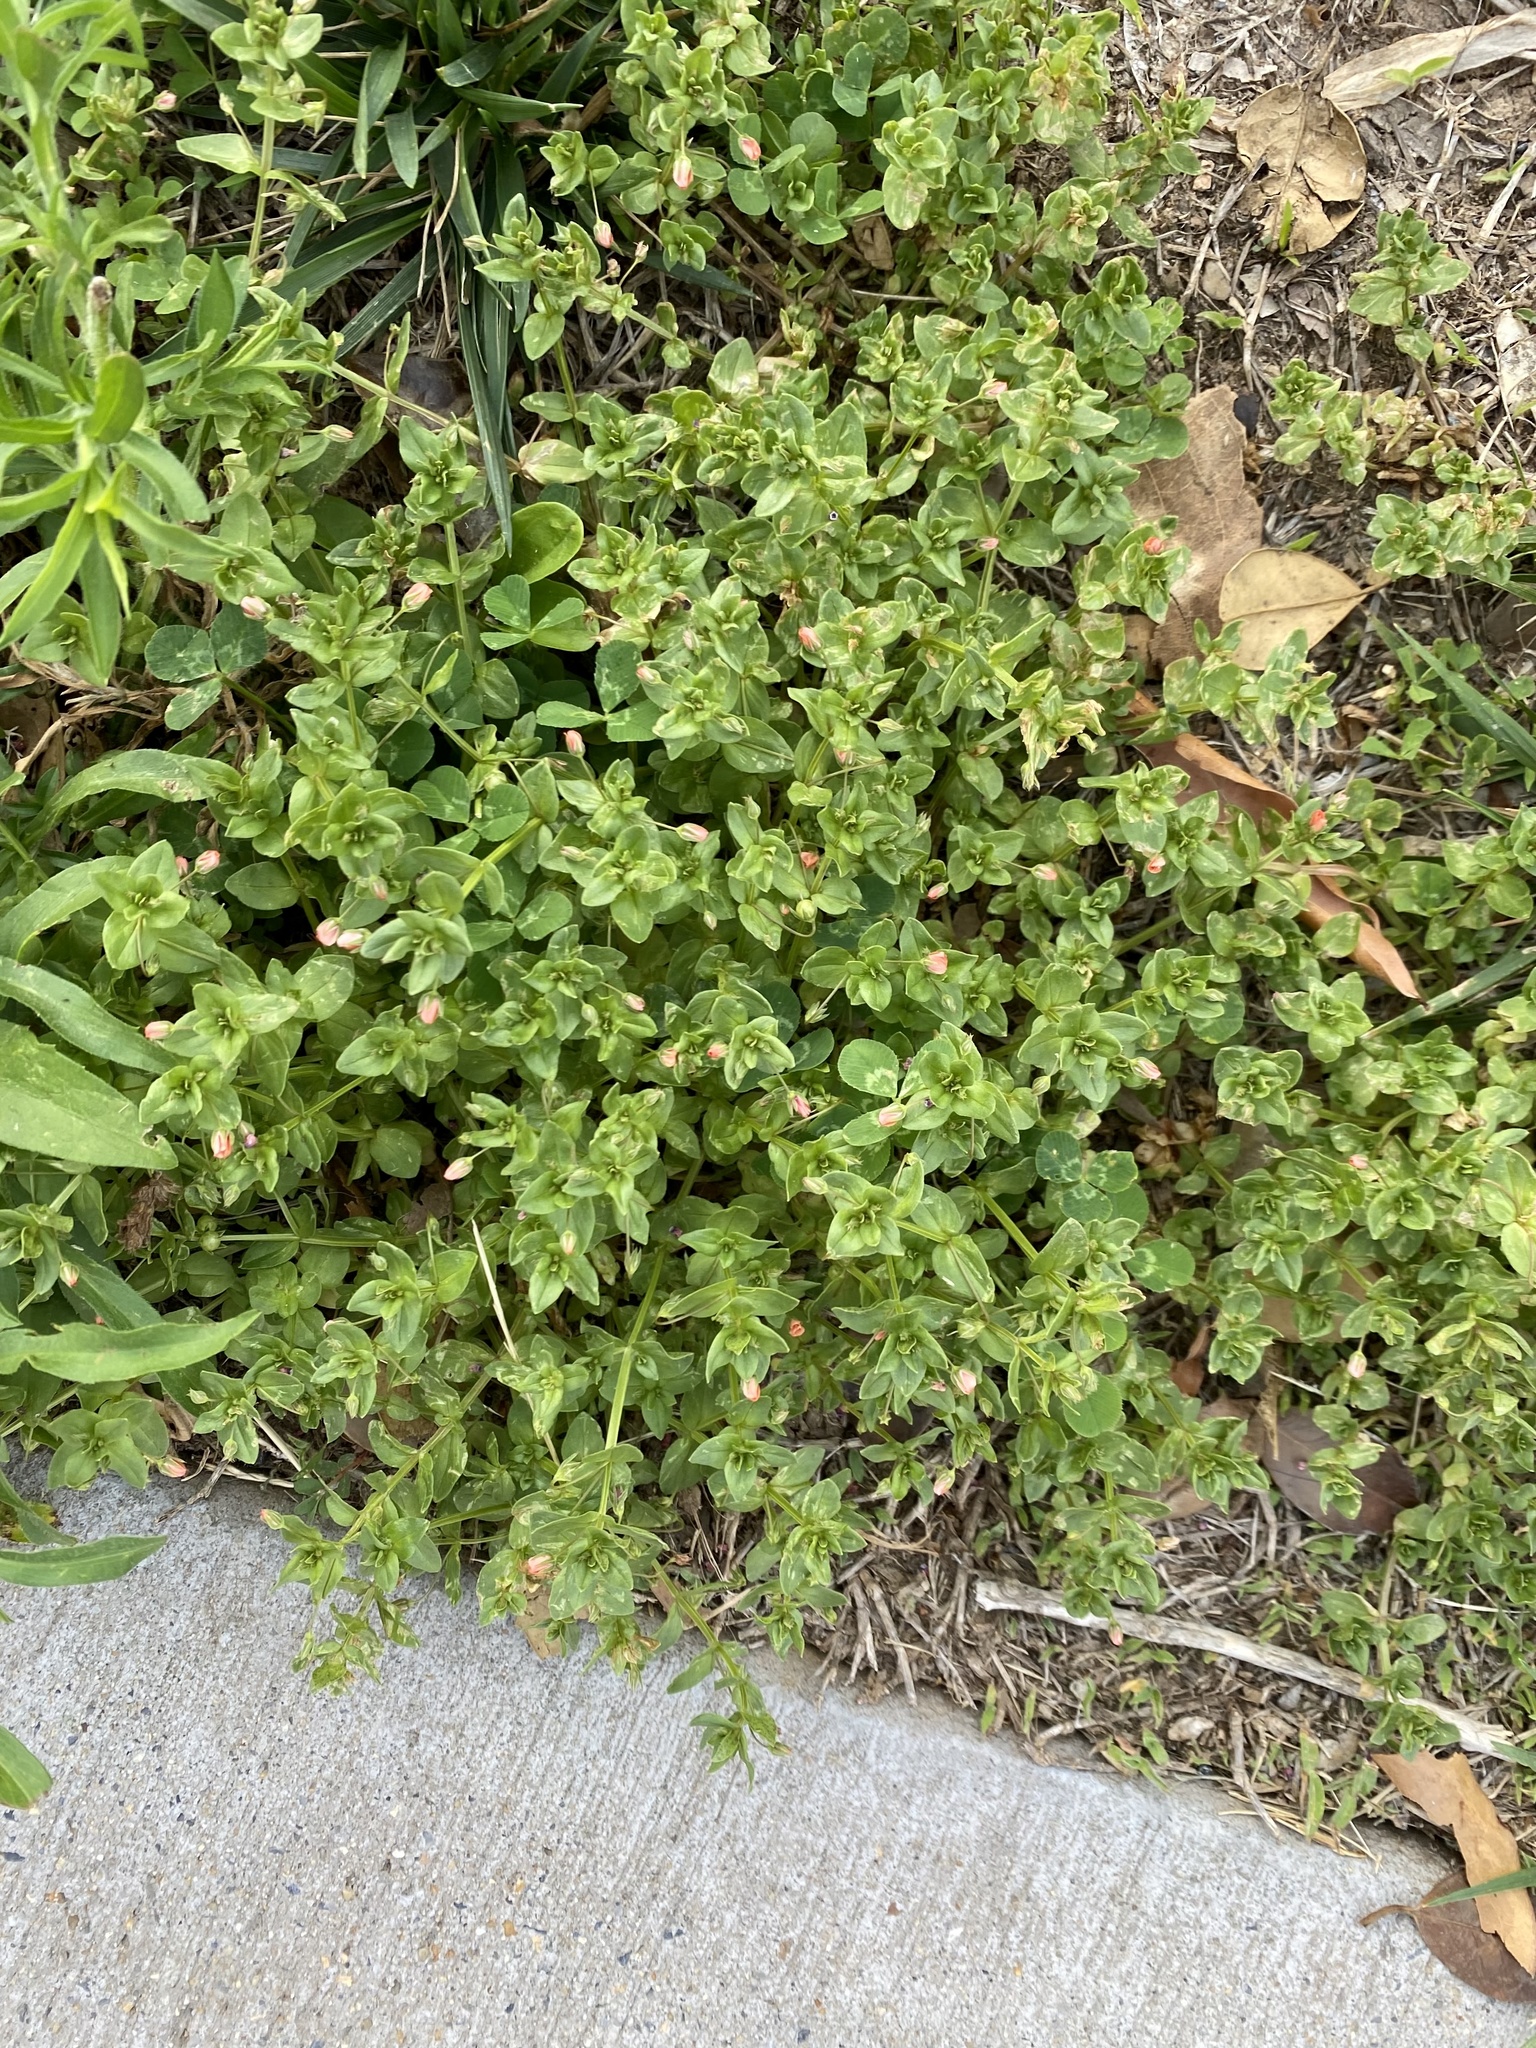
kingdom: Plantae
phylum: Tracheophyta
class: Magnoliopsida
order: Ericales
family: Primulaceae
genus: Lysimachia
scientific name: Lysimachia arvensis
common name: Scarlet pimpernel
